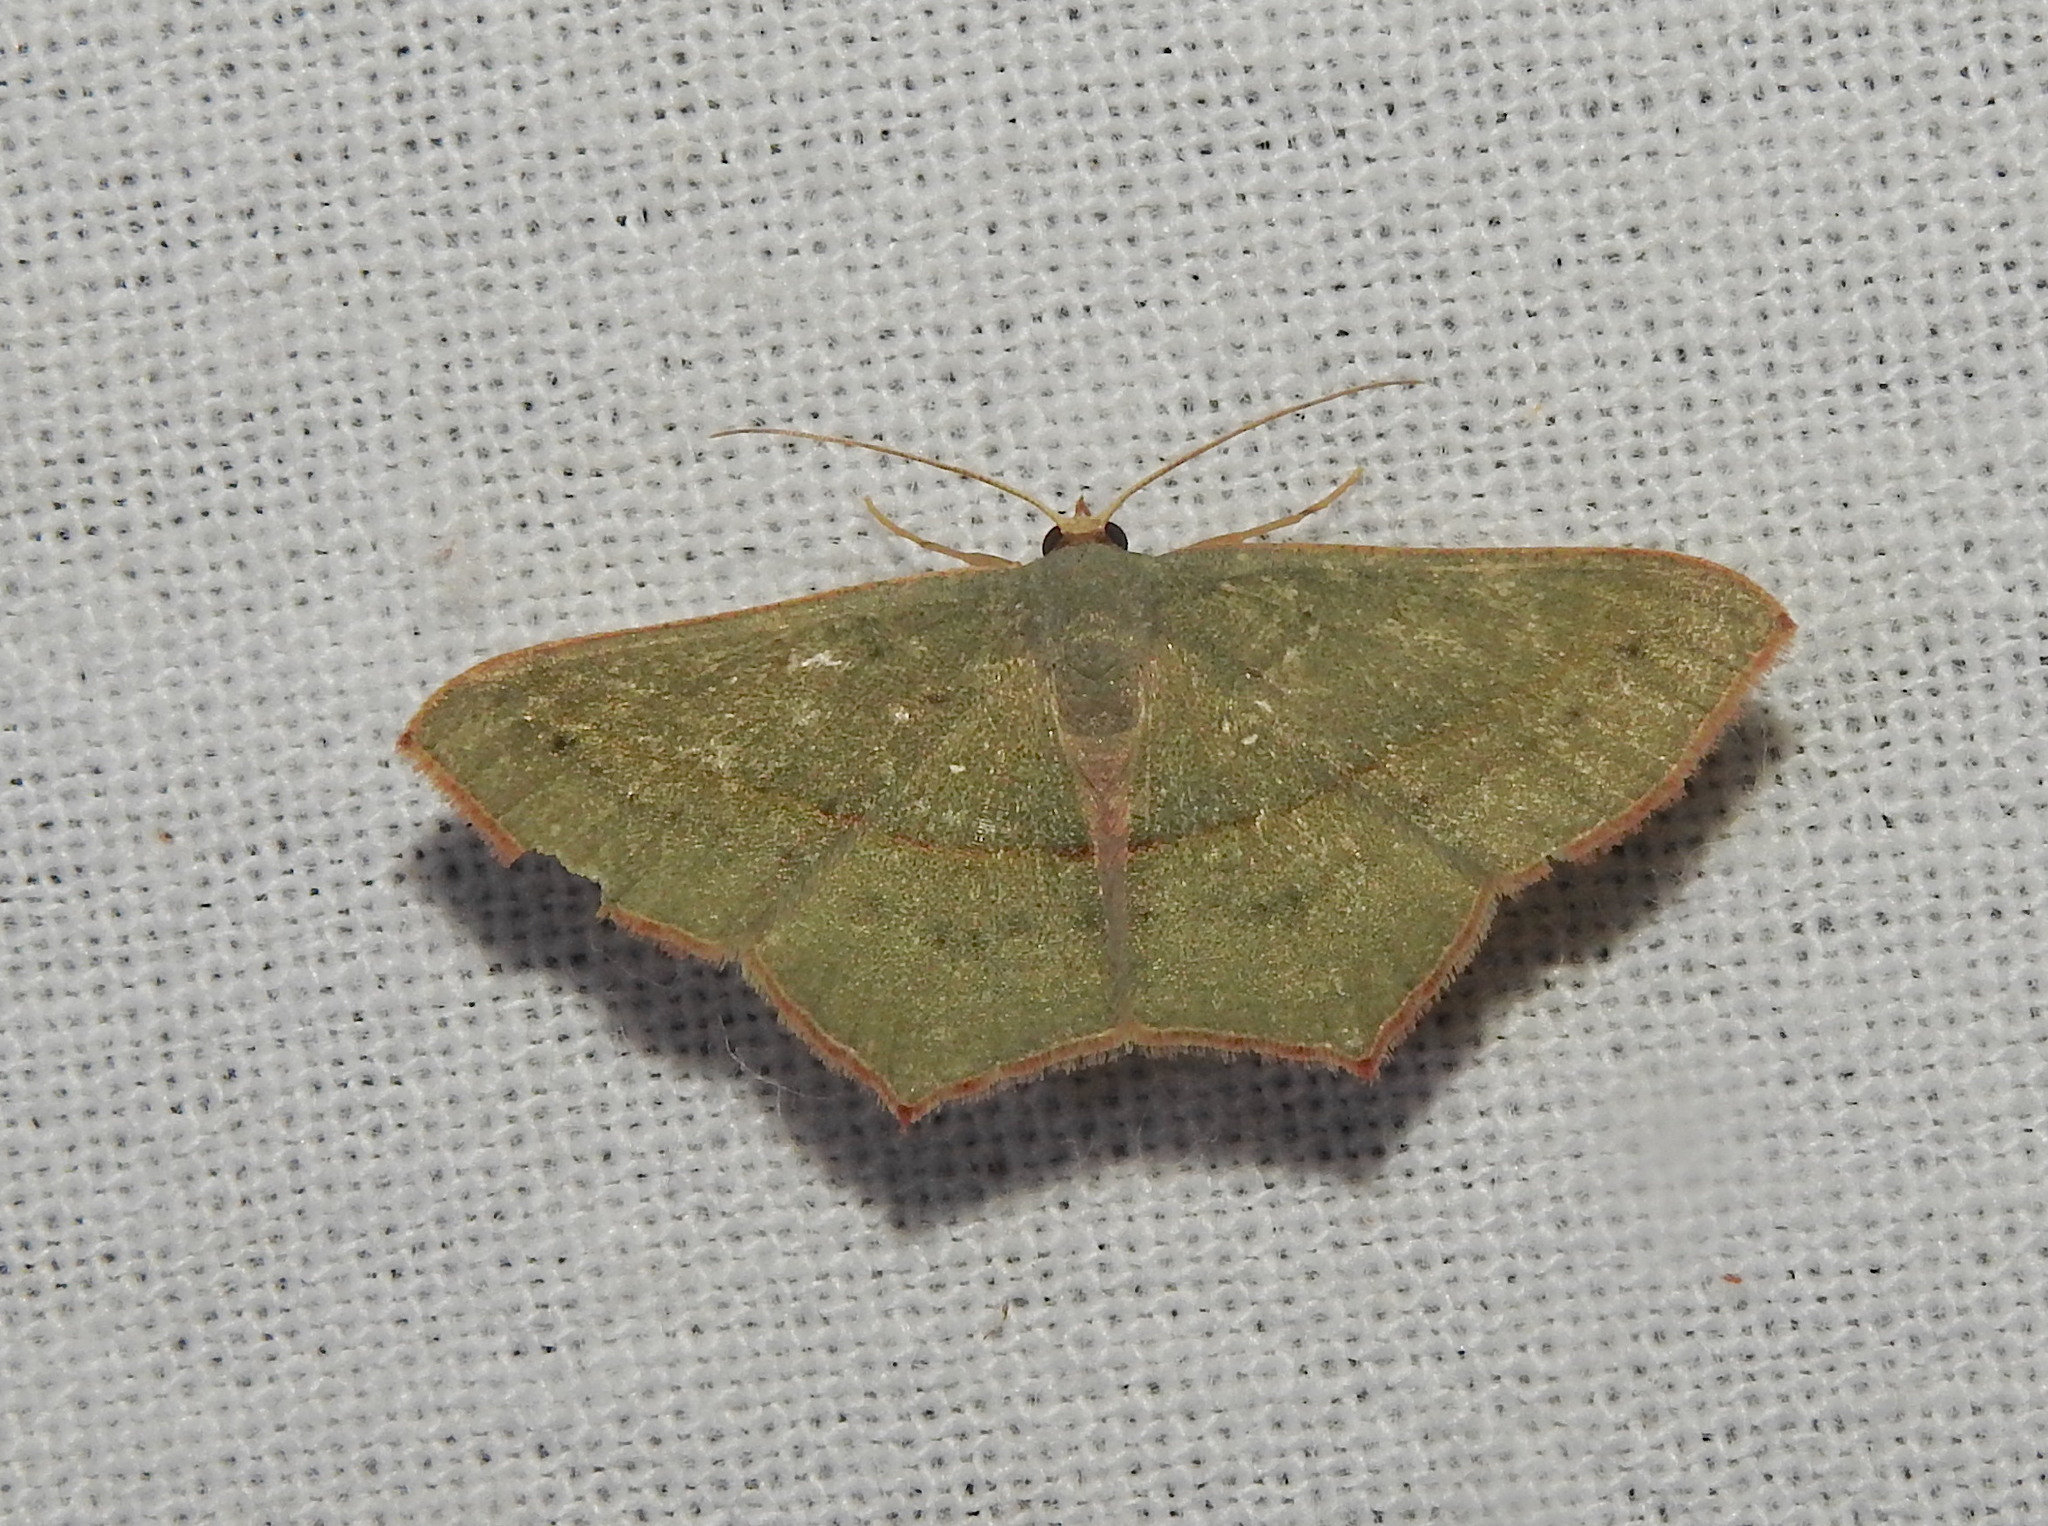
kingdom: Animalia
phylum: Arthropoda
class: Insecta
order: Lepidoptera
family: Geometridae
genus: Traminda
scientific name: Traminda mundissima
